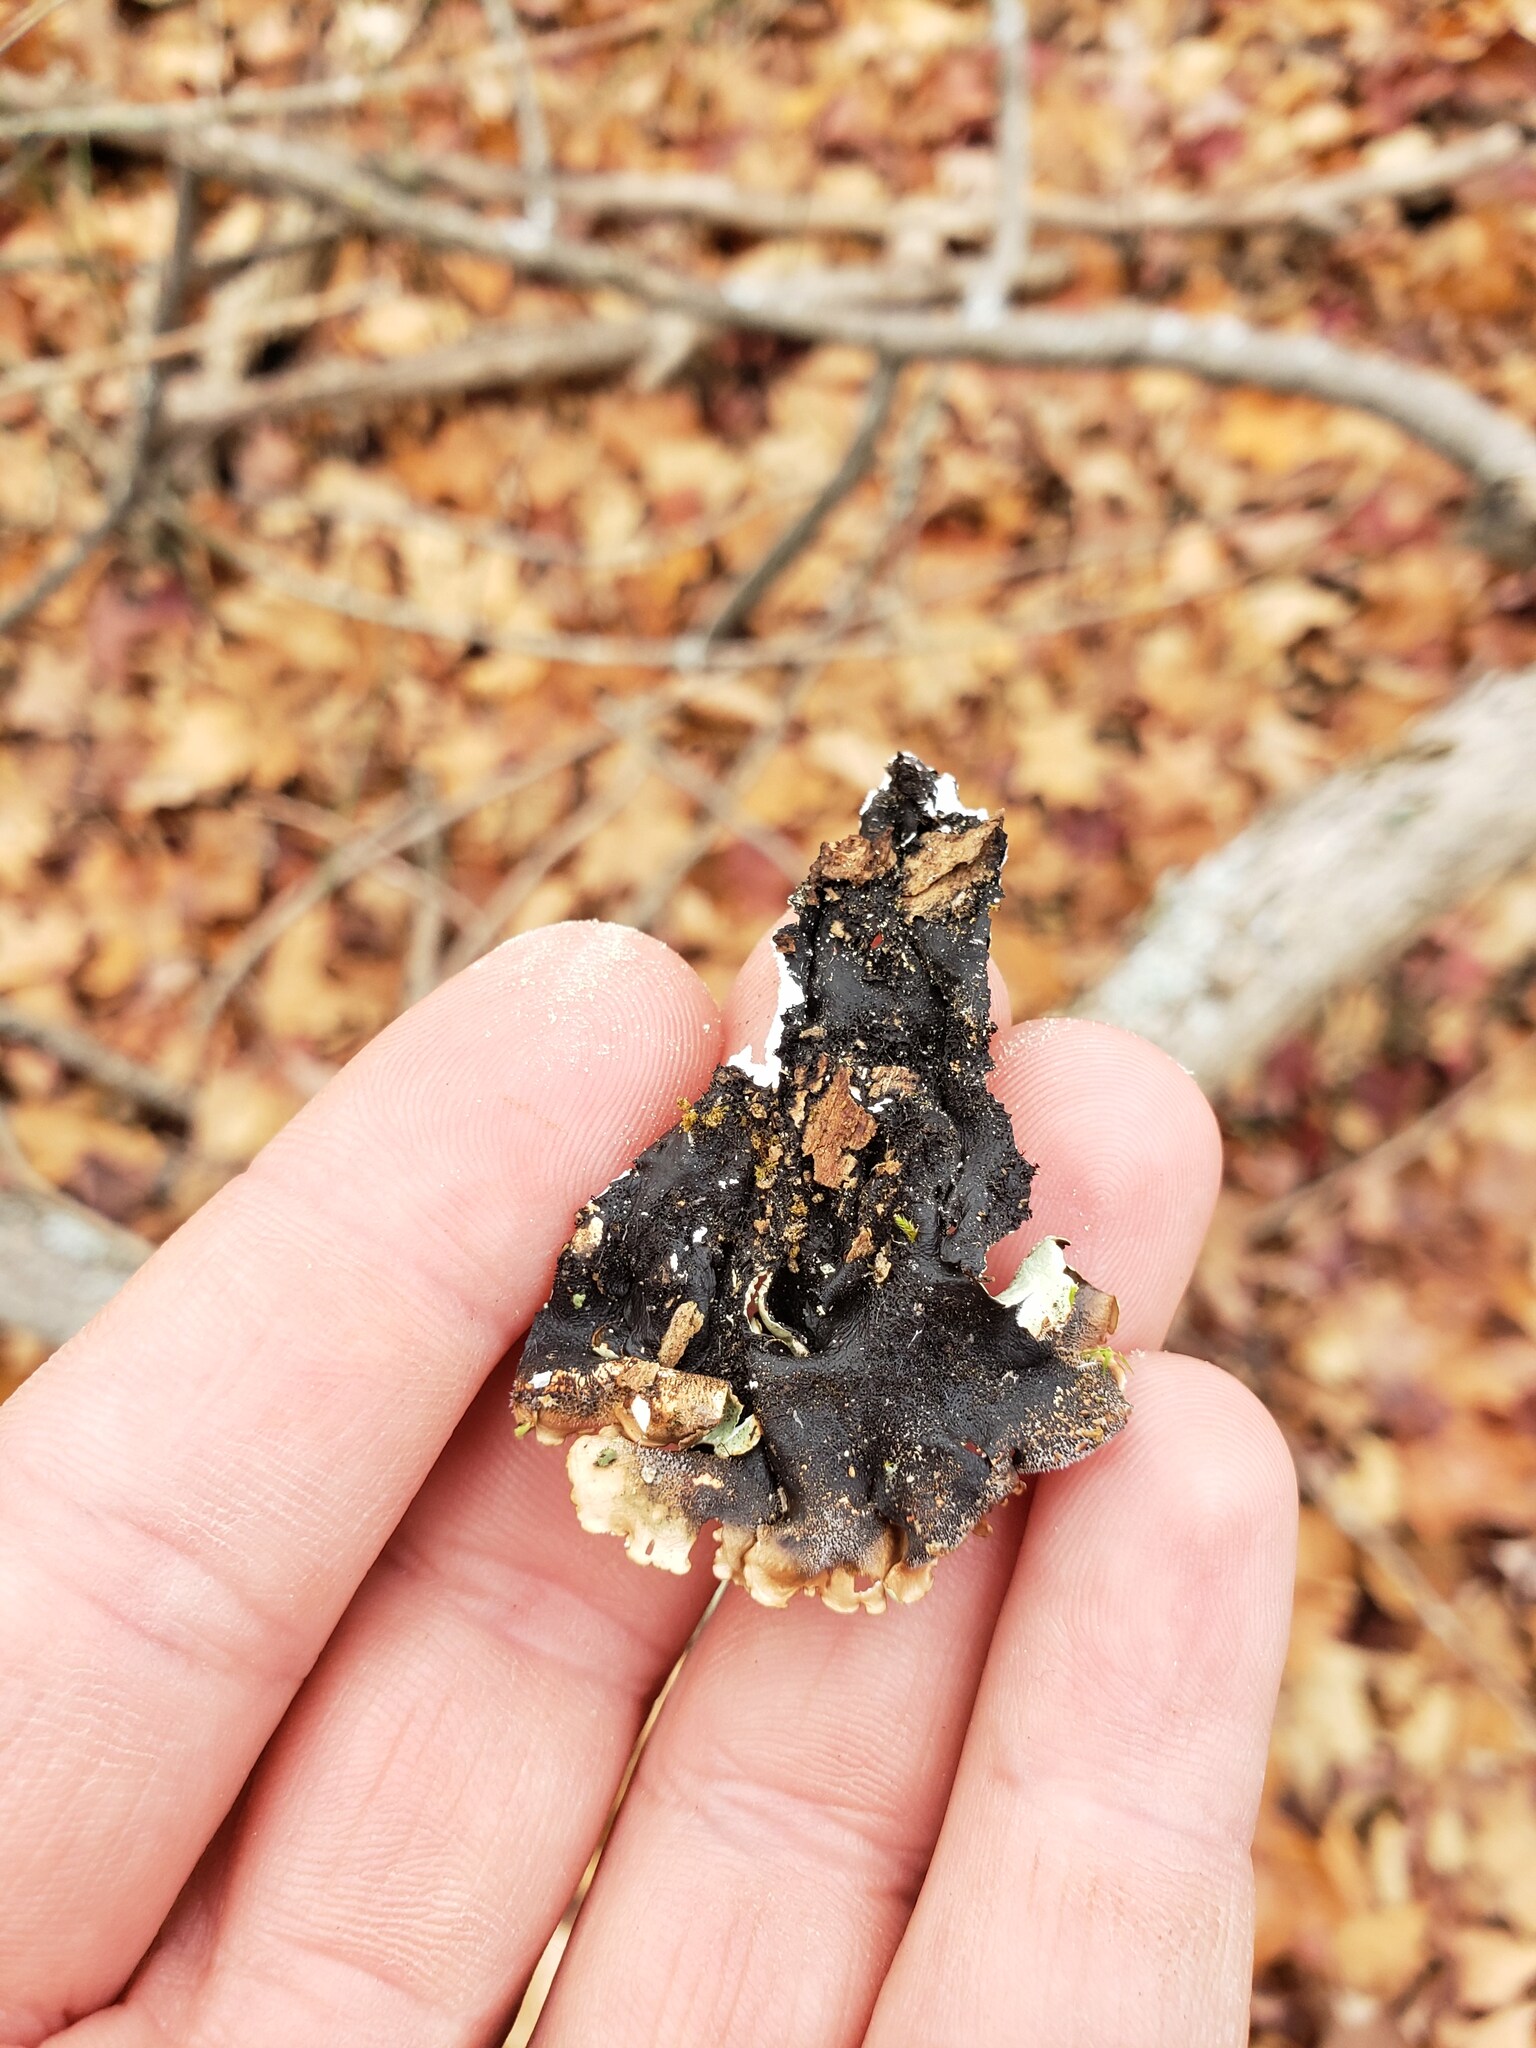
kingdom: Fungi
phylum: Ascomycota
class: Lecanoromycetes
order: Lecanorales
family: Parmeliaceae
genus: Flavoparmelia
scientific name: Flavoparmelia caperata
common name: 40-mile per hour lichen
